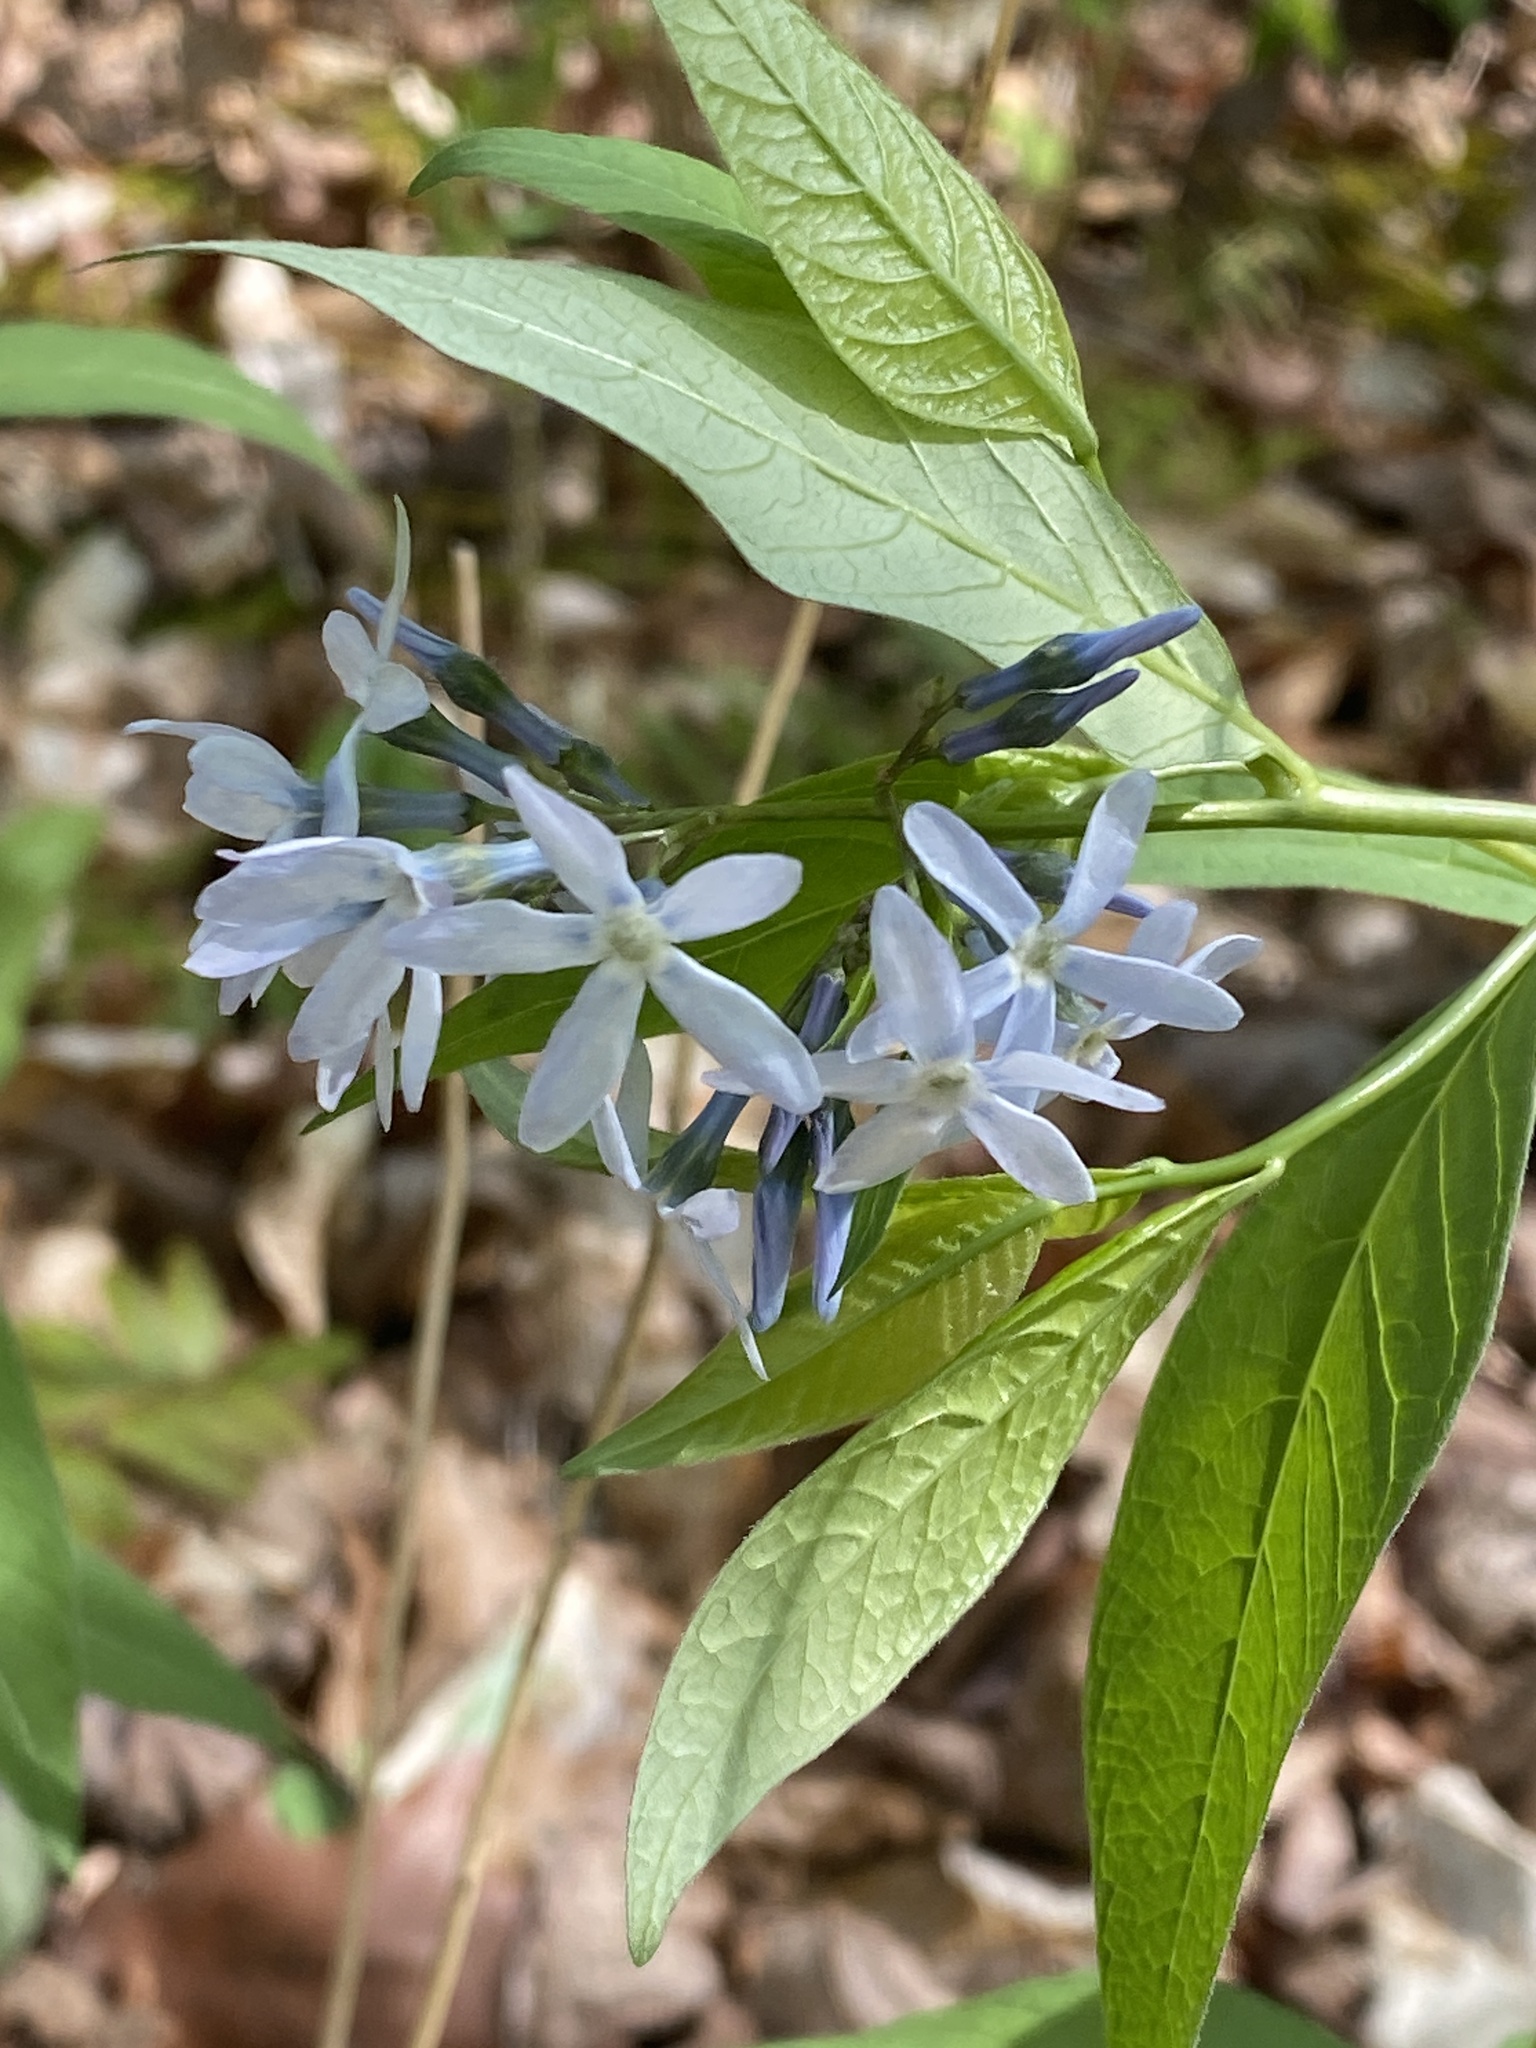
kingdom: Plantae
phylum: Tracheophyta
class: Magnoliopsida
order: Gentianales
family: Apocynaceae
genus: Amsonia
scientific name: Amsonia tabernaemontana
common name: Texas-star
